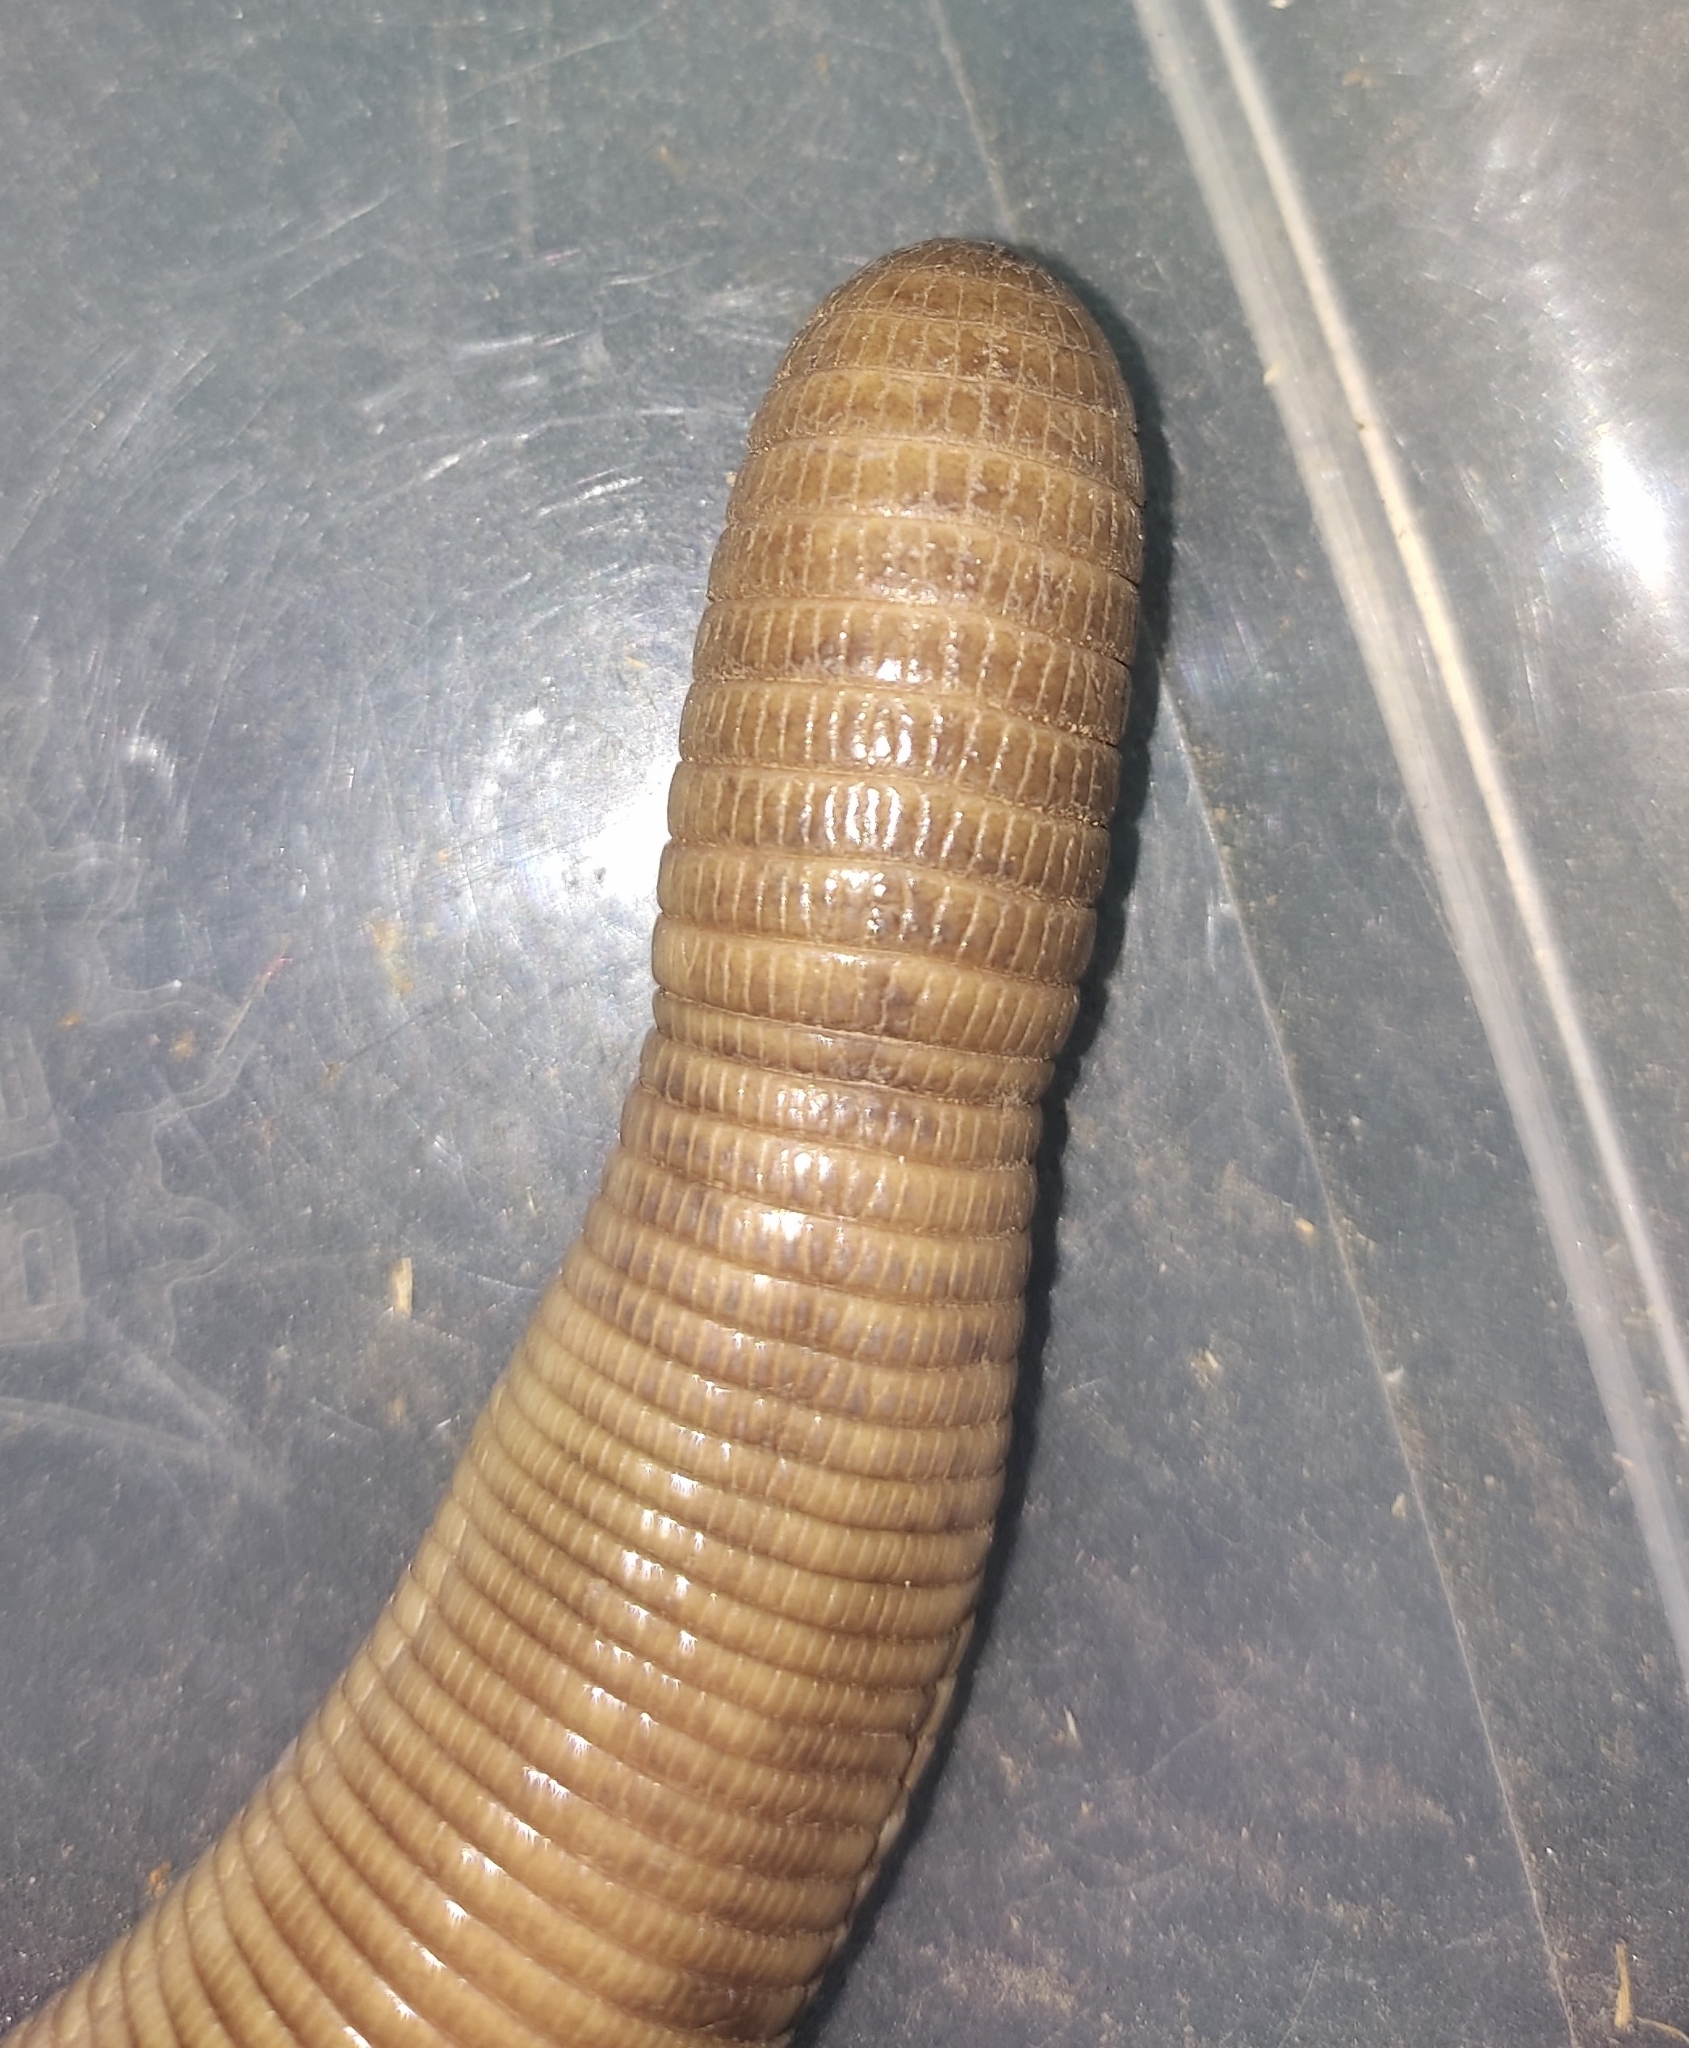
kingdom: Animalia
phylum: Chordata
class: Squamata
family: Amphisbaenidae
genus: Amphisbaena
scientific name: Amphisbaena camura
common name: Crooked worm lizard
